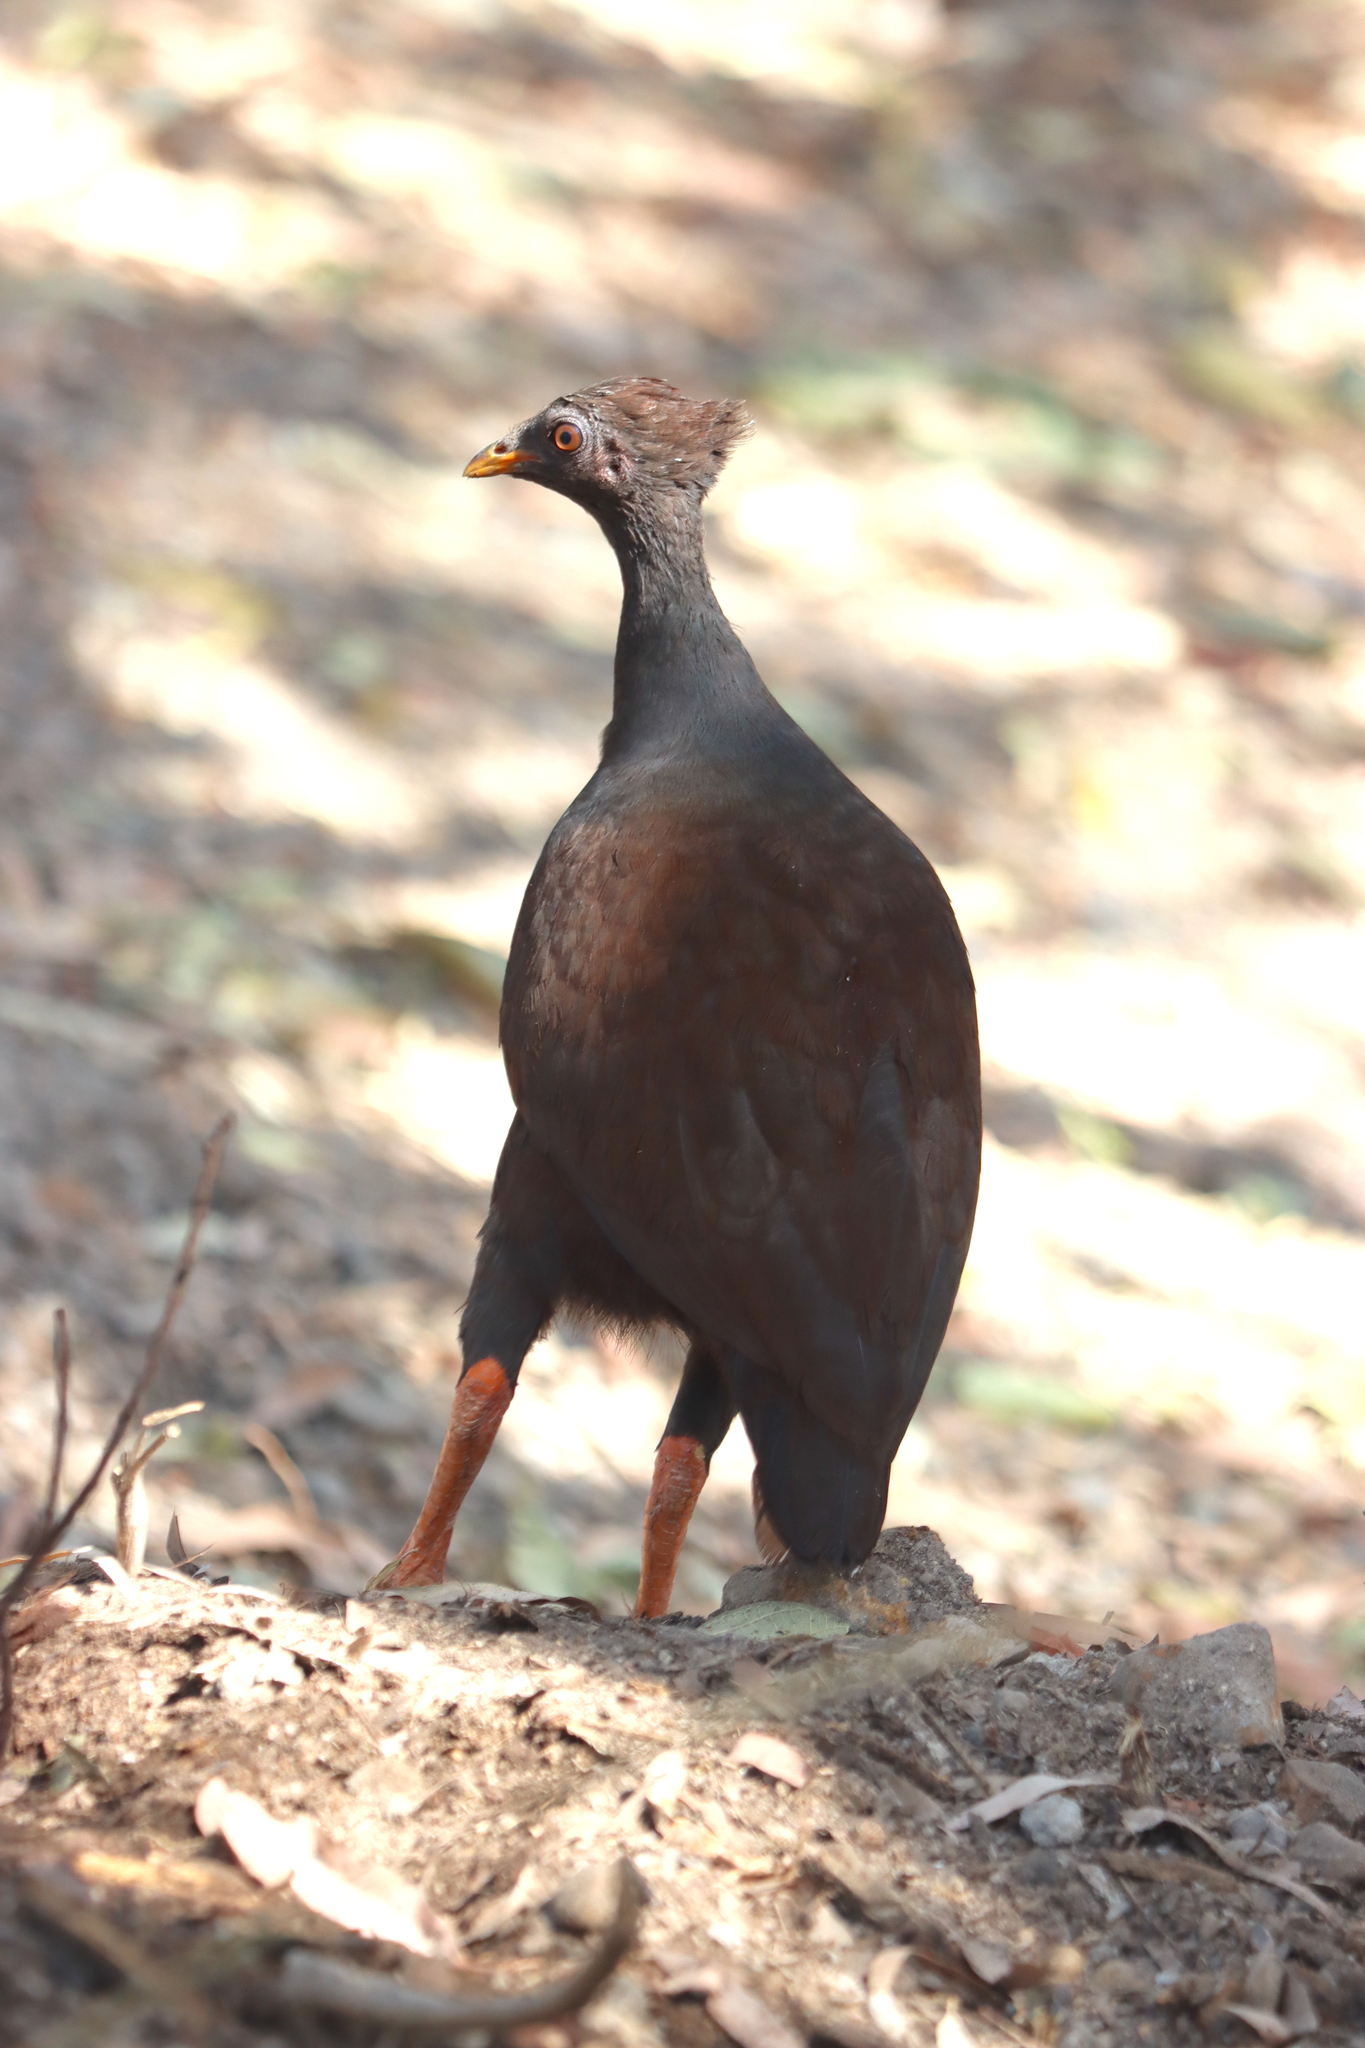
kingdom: Animalia
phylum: Chordata
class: Aves
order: Galliformes
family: Megapodiidae
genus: Megapodius
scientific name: Megapodius reinwardt
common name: Orange-footed scrubfowl
